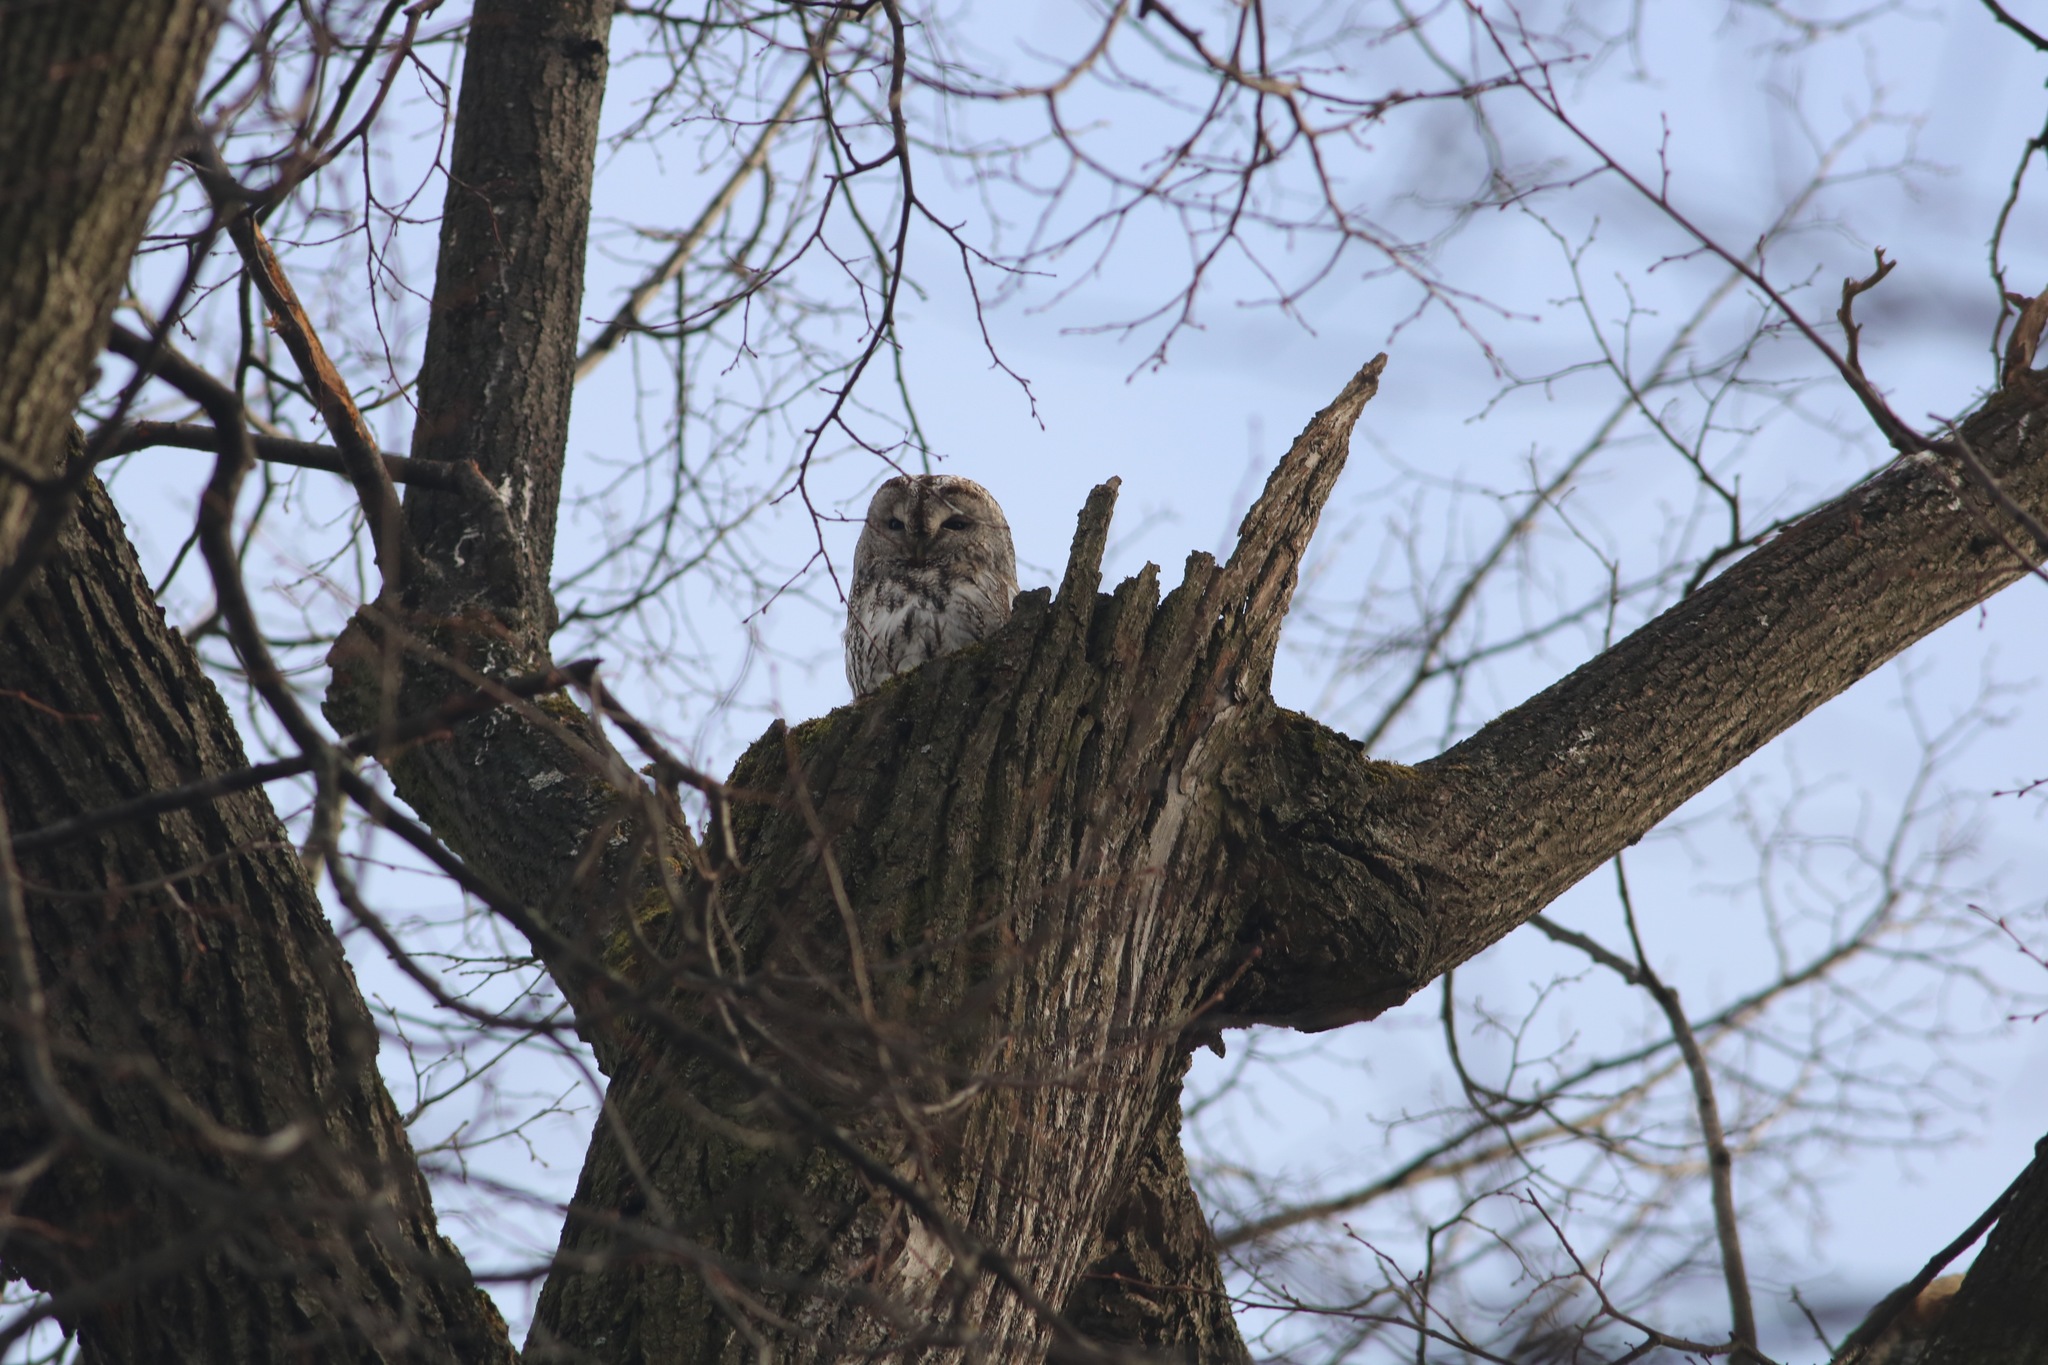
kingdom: Animalia
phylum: Chordata
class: Aves
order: Strigiformes
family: Strigidae
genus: Strix
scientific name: Strix aluco
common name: Tawny owl
